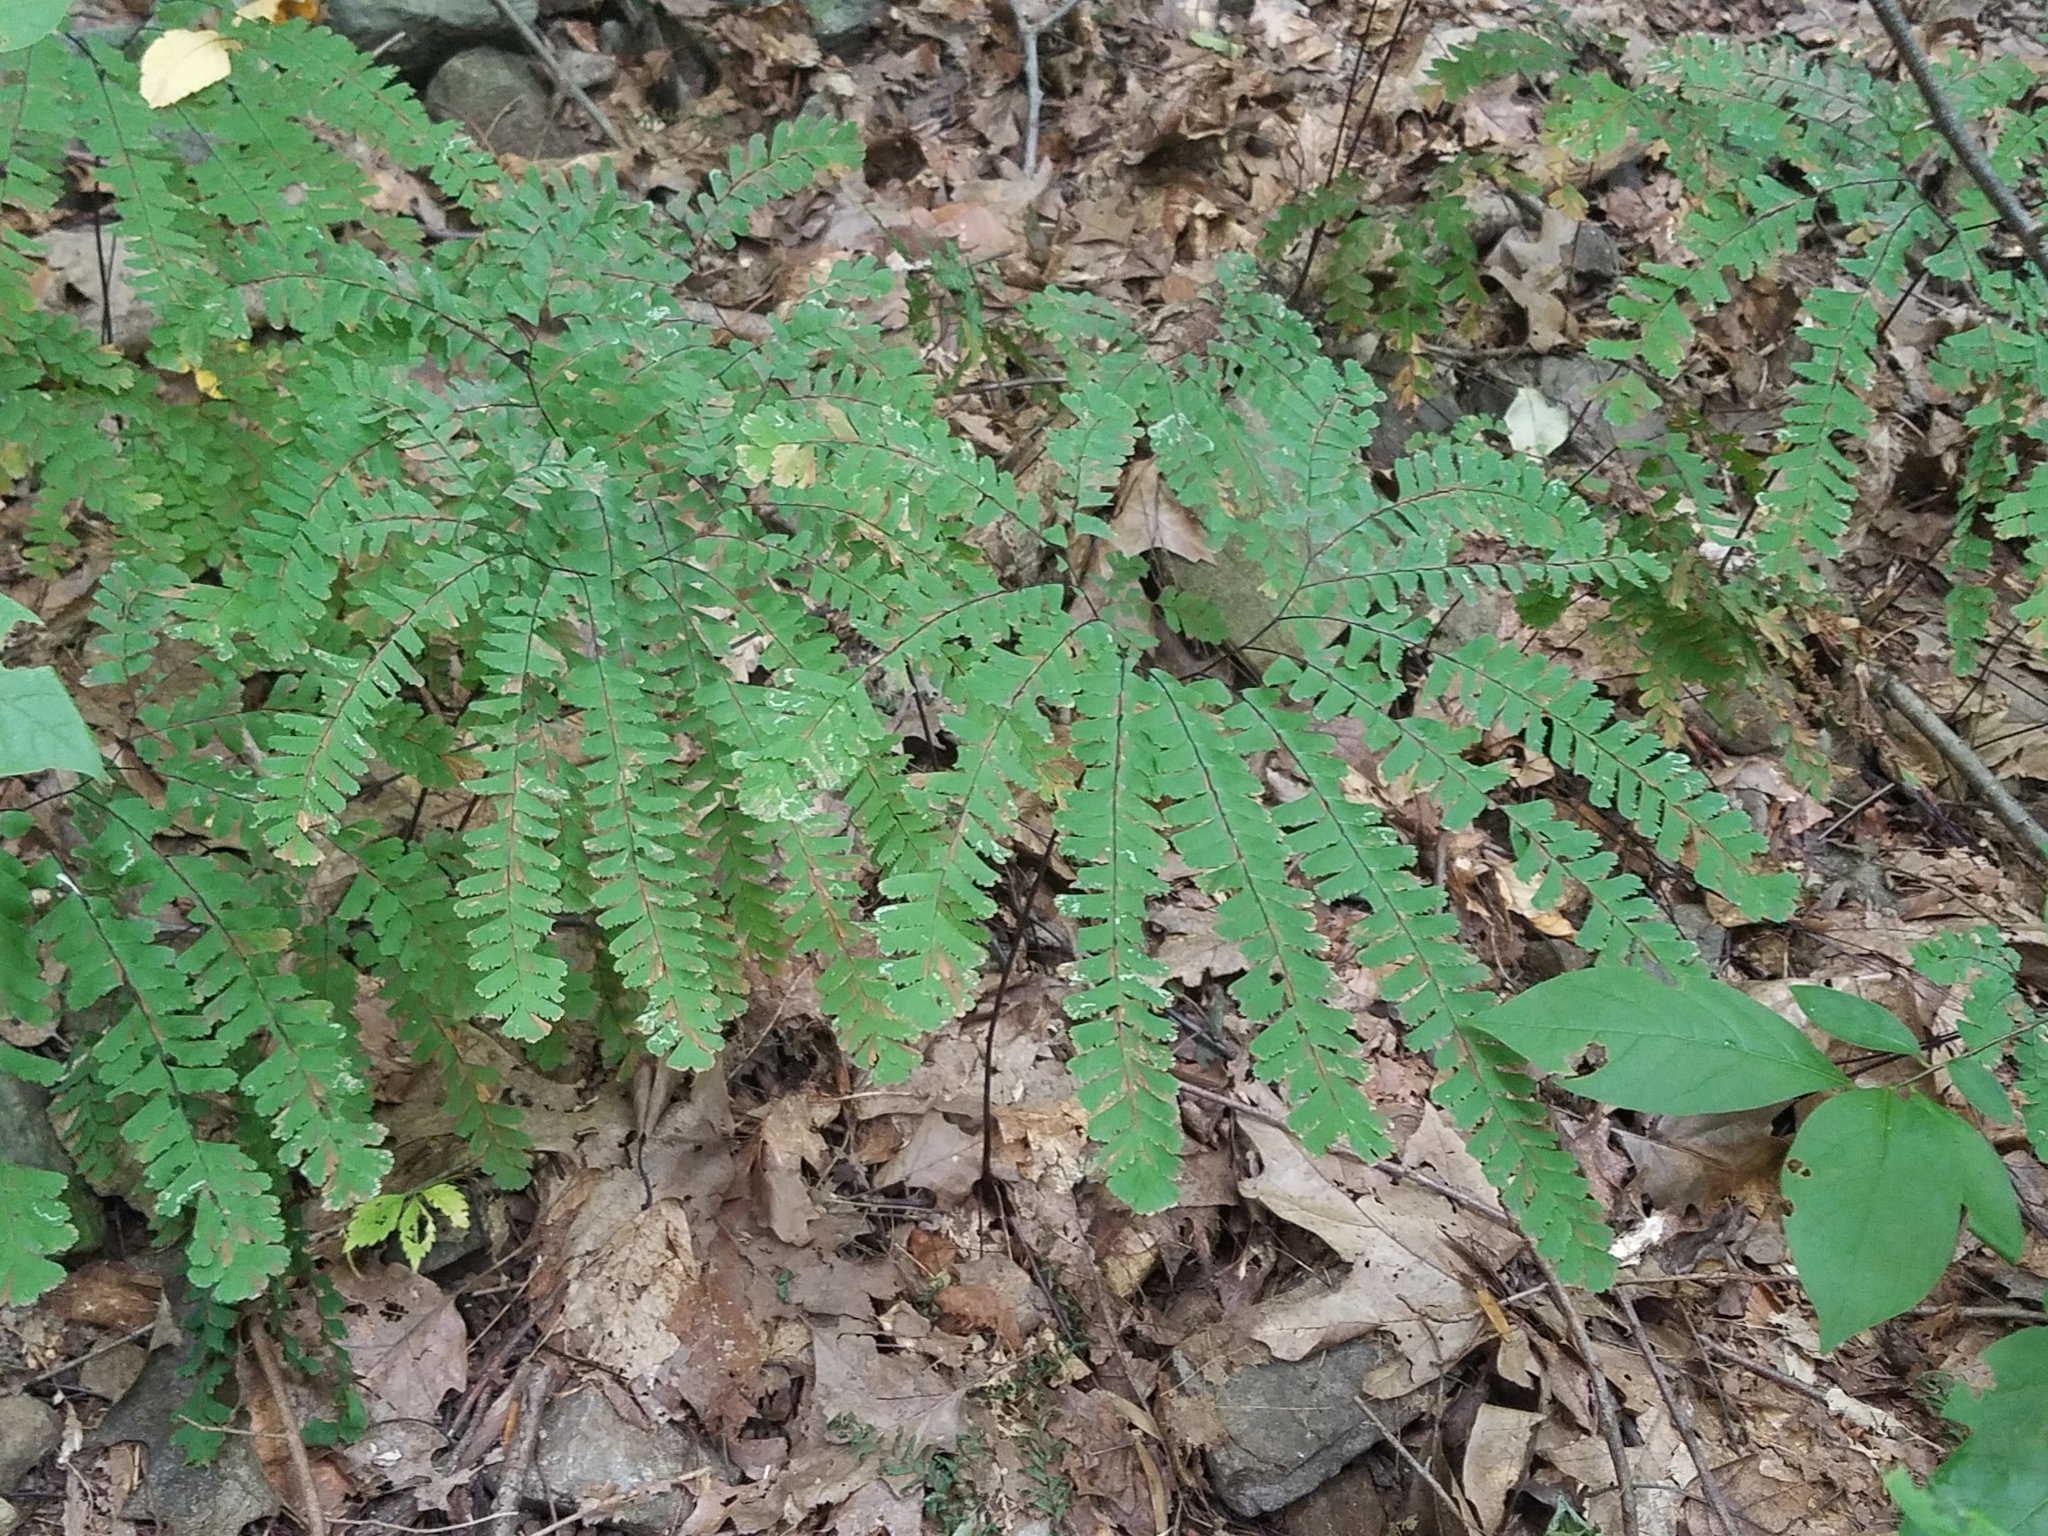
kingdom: Plantae
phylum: Tracheophyta
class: Polypodiopsida
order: Polypodiales
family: Pteridaceae
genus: Adiantum
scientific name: Adiantum pedatum
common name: Five-finger fern
